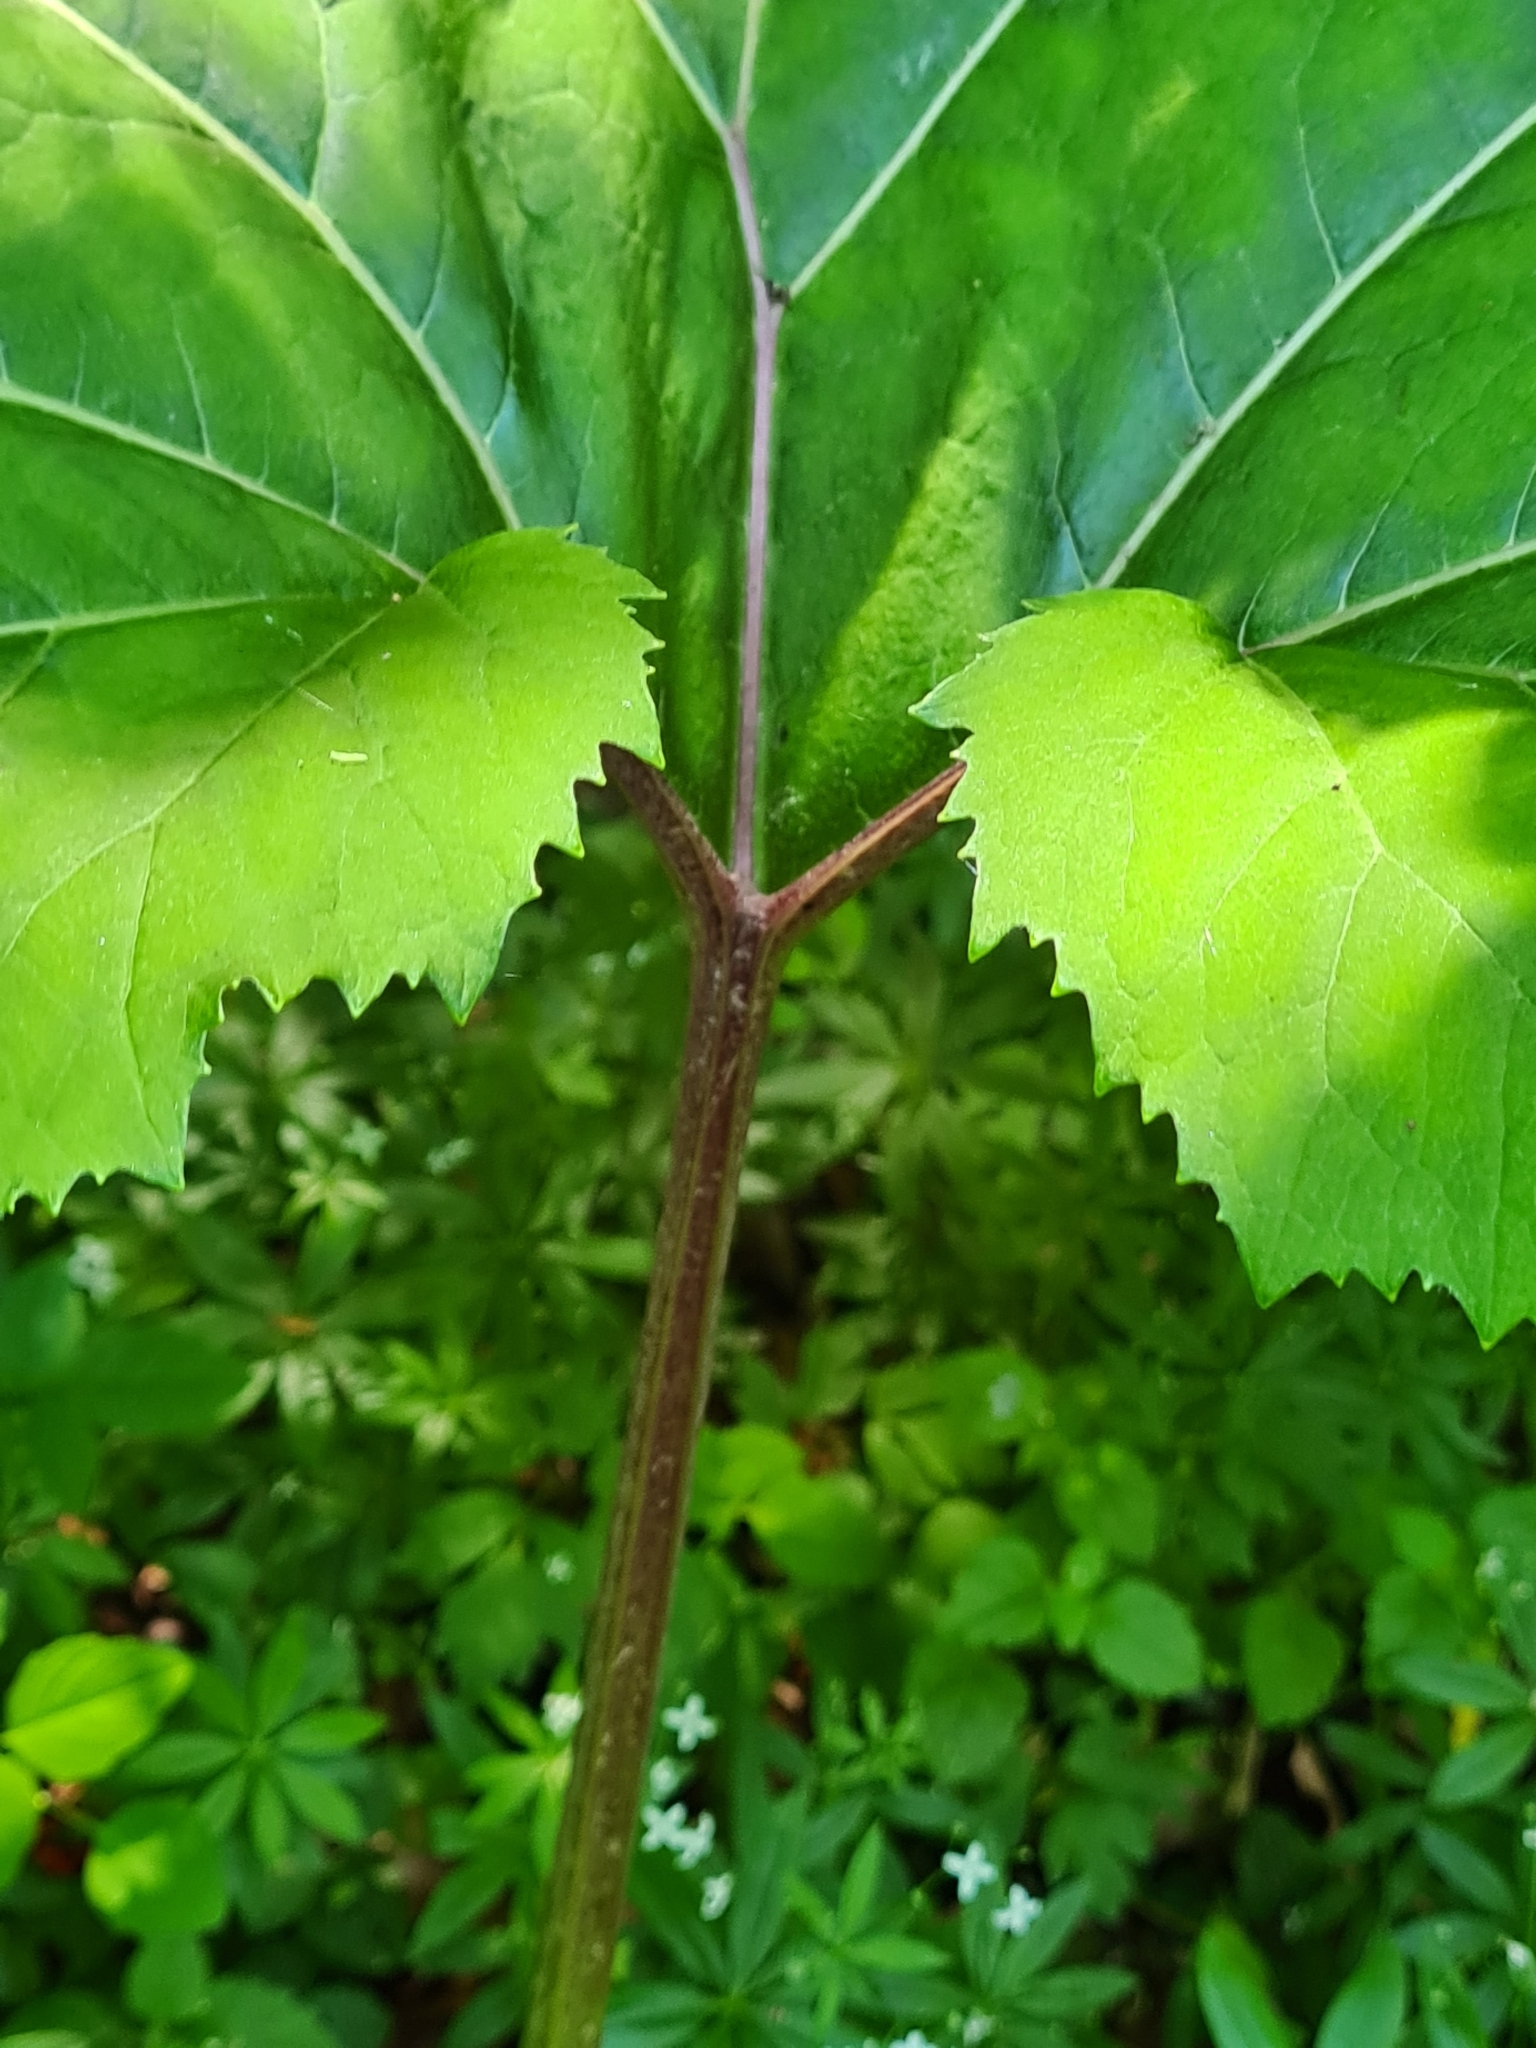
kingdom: Plantae
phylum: Tracheophyta
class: Magnoliopsida
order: Asterales
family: Asteraceae
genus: Petasites
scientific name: Petasites hybridus
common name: Butterbur
